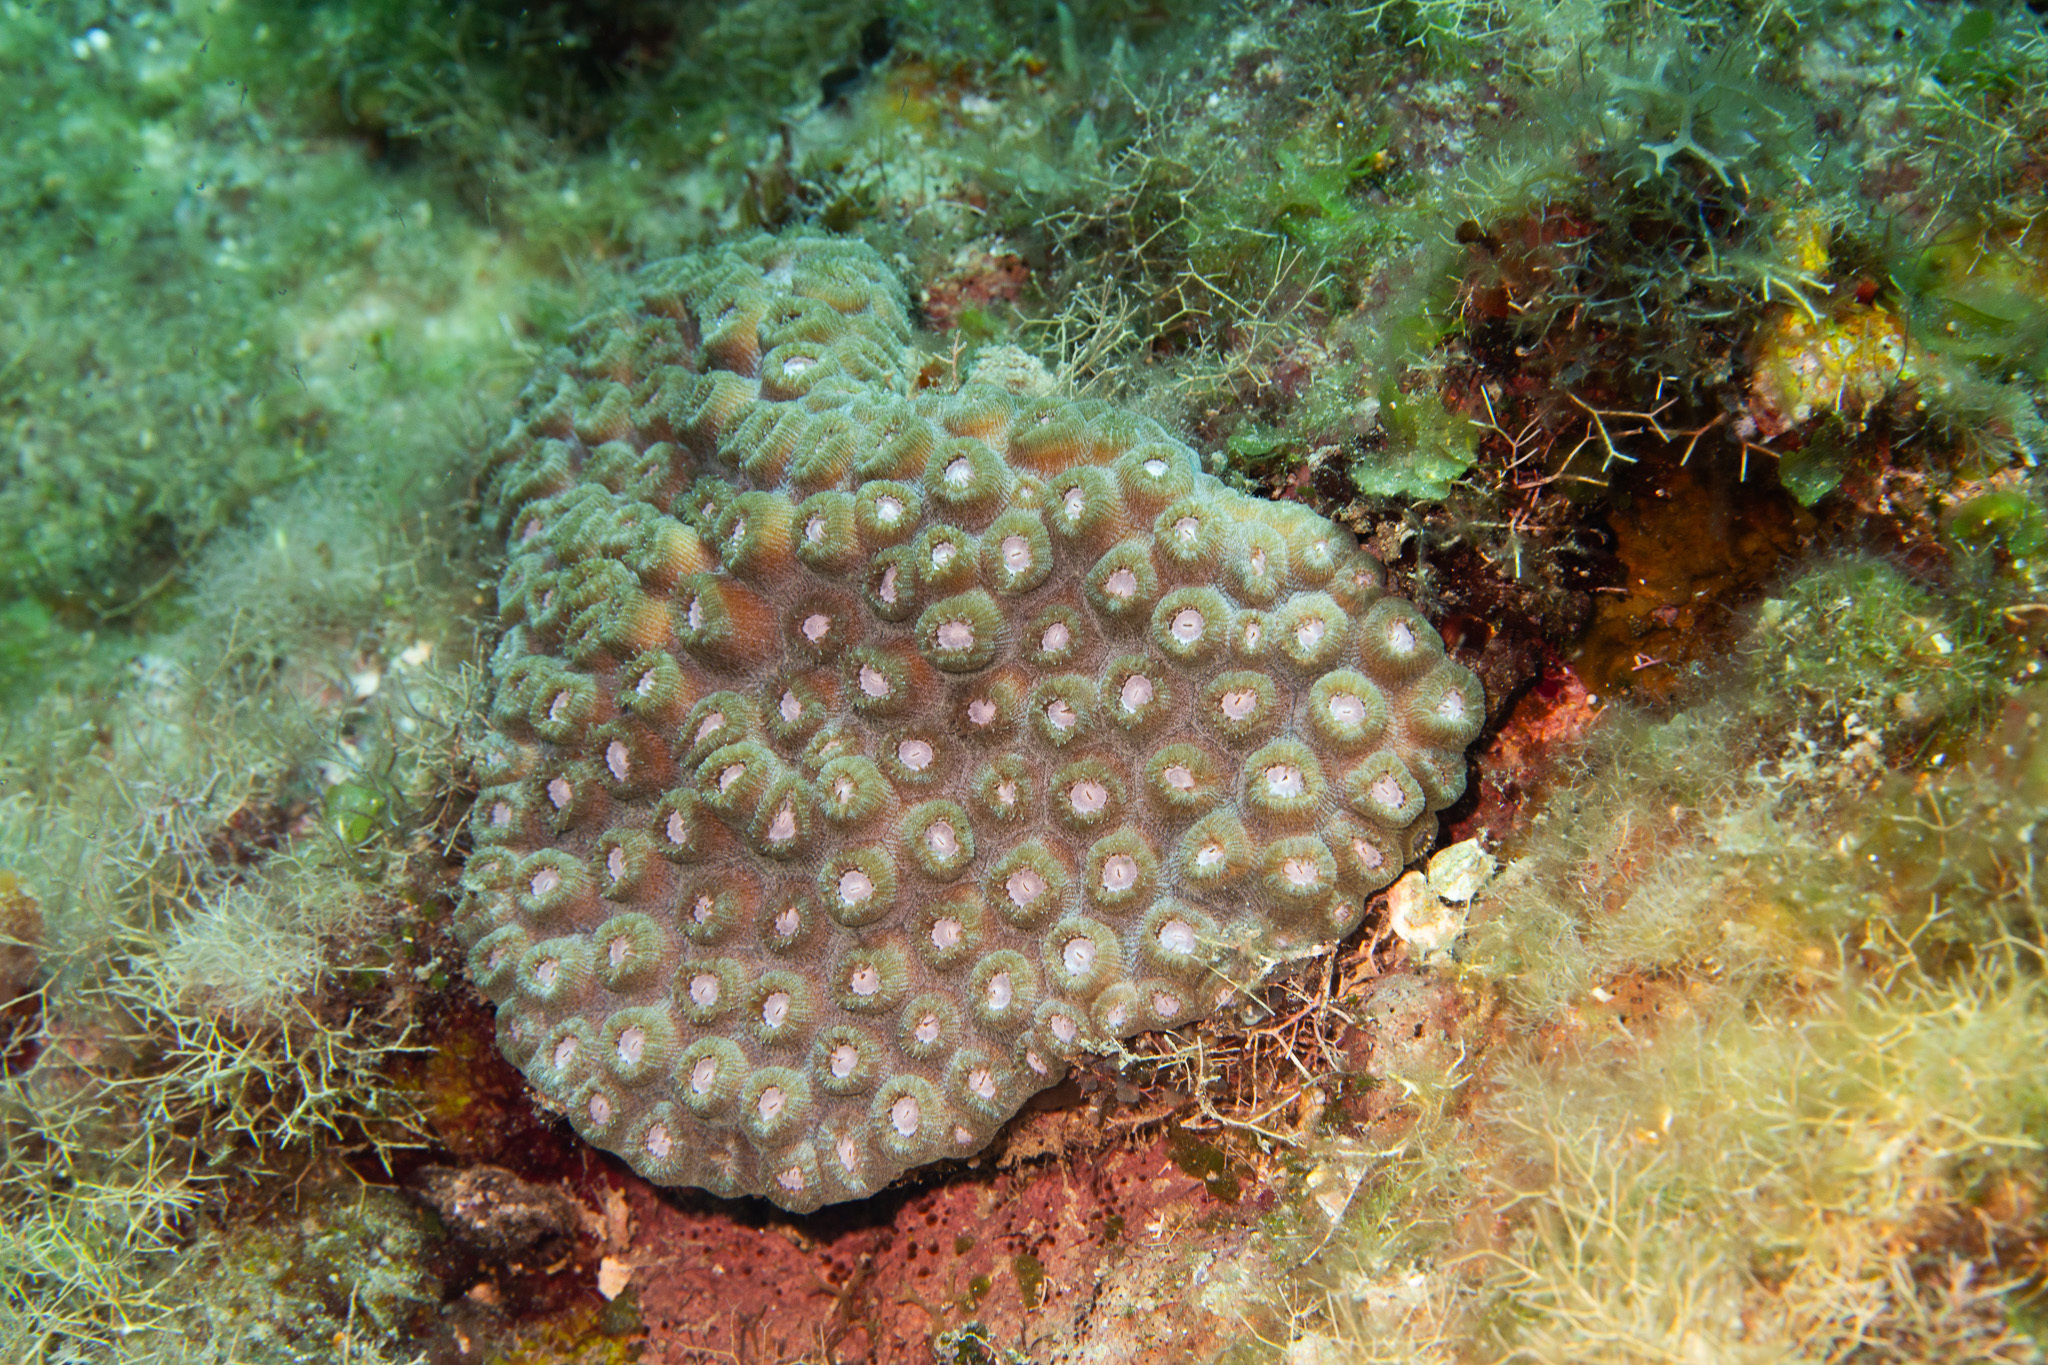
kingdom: Animalia
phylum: Cnidaria
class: Anthozoa
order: Scleractinia
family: Montastraeidae
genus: Montastraea
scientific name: Montastraea cavernosa
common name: Great star coral
